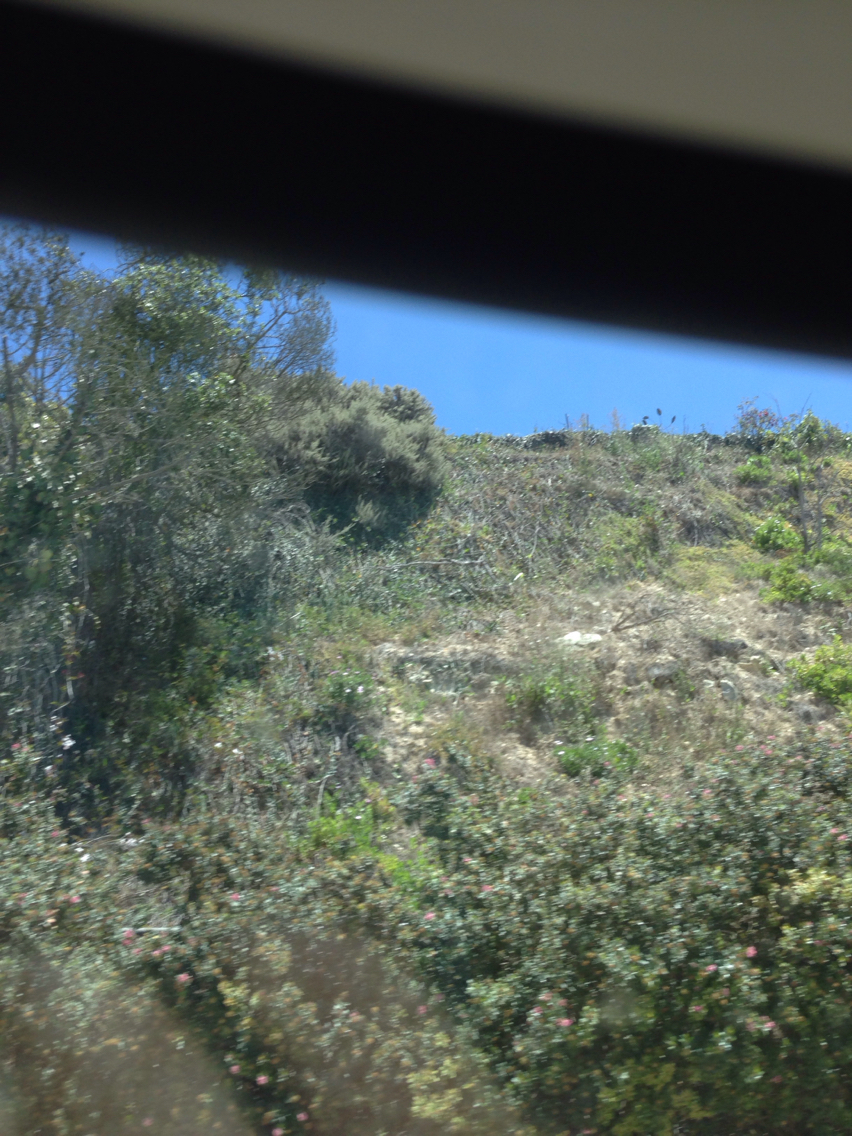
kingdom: Plantae
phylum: Tracheophyta
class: Magnoliopsida
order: Asterales
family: Asteraceae
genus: Artemisia
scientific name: Artemisia californica
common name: California sagebrush
